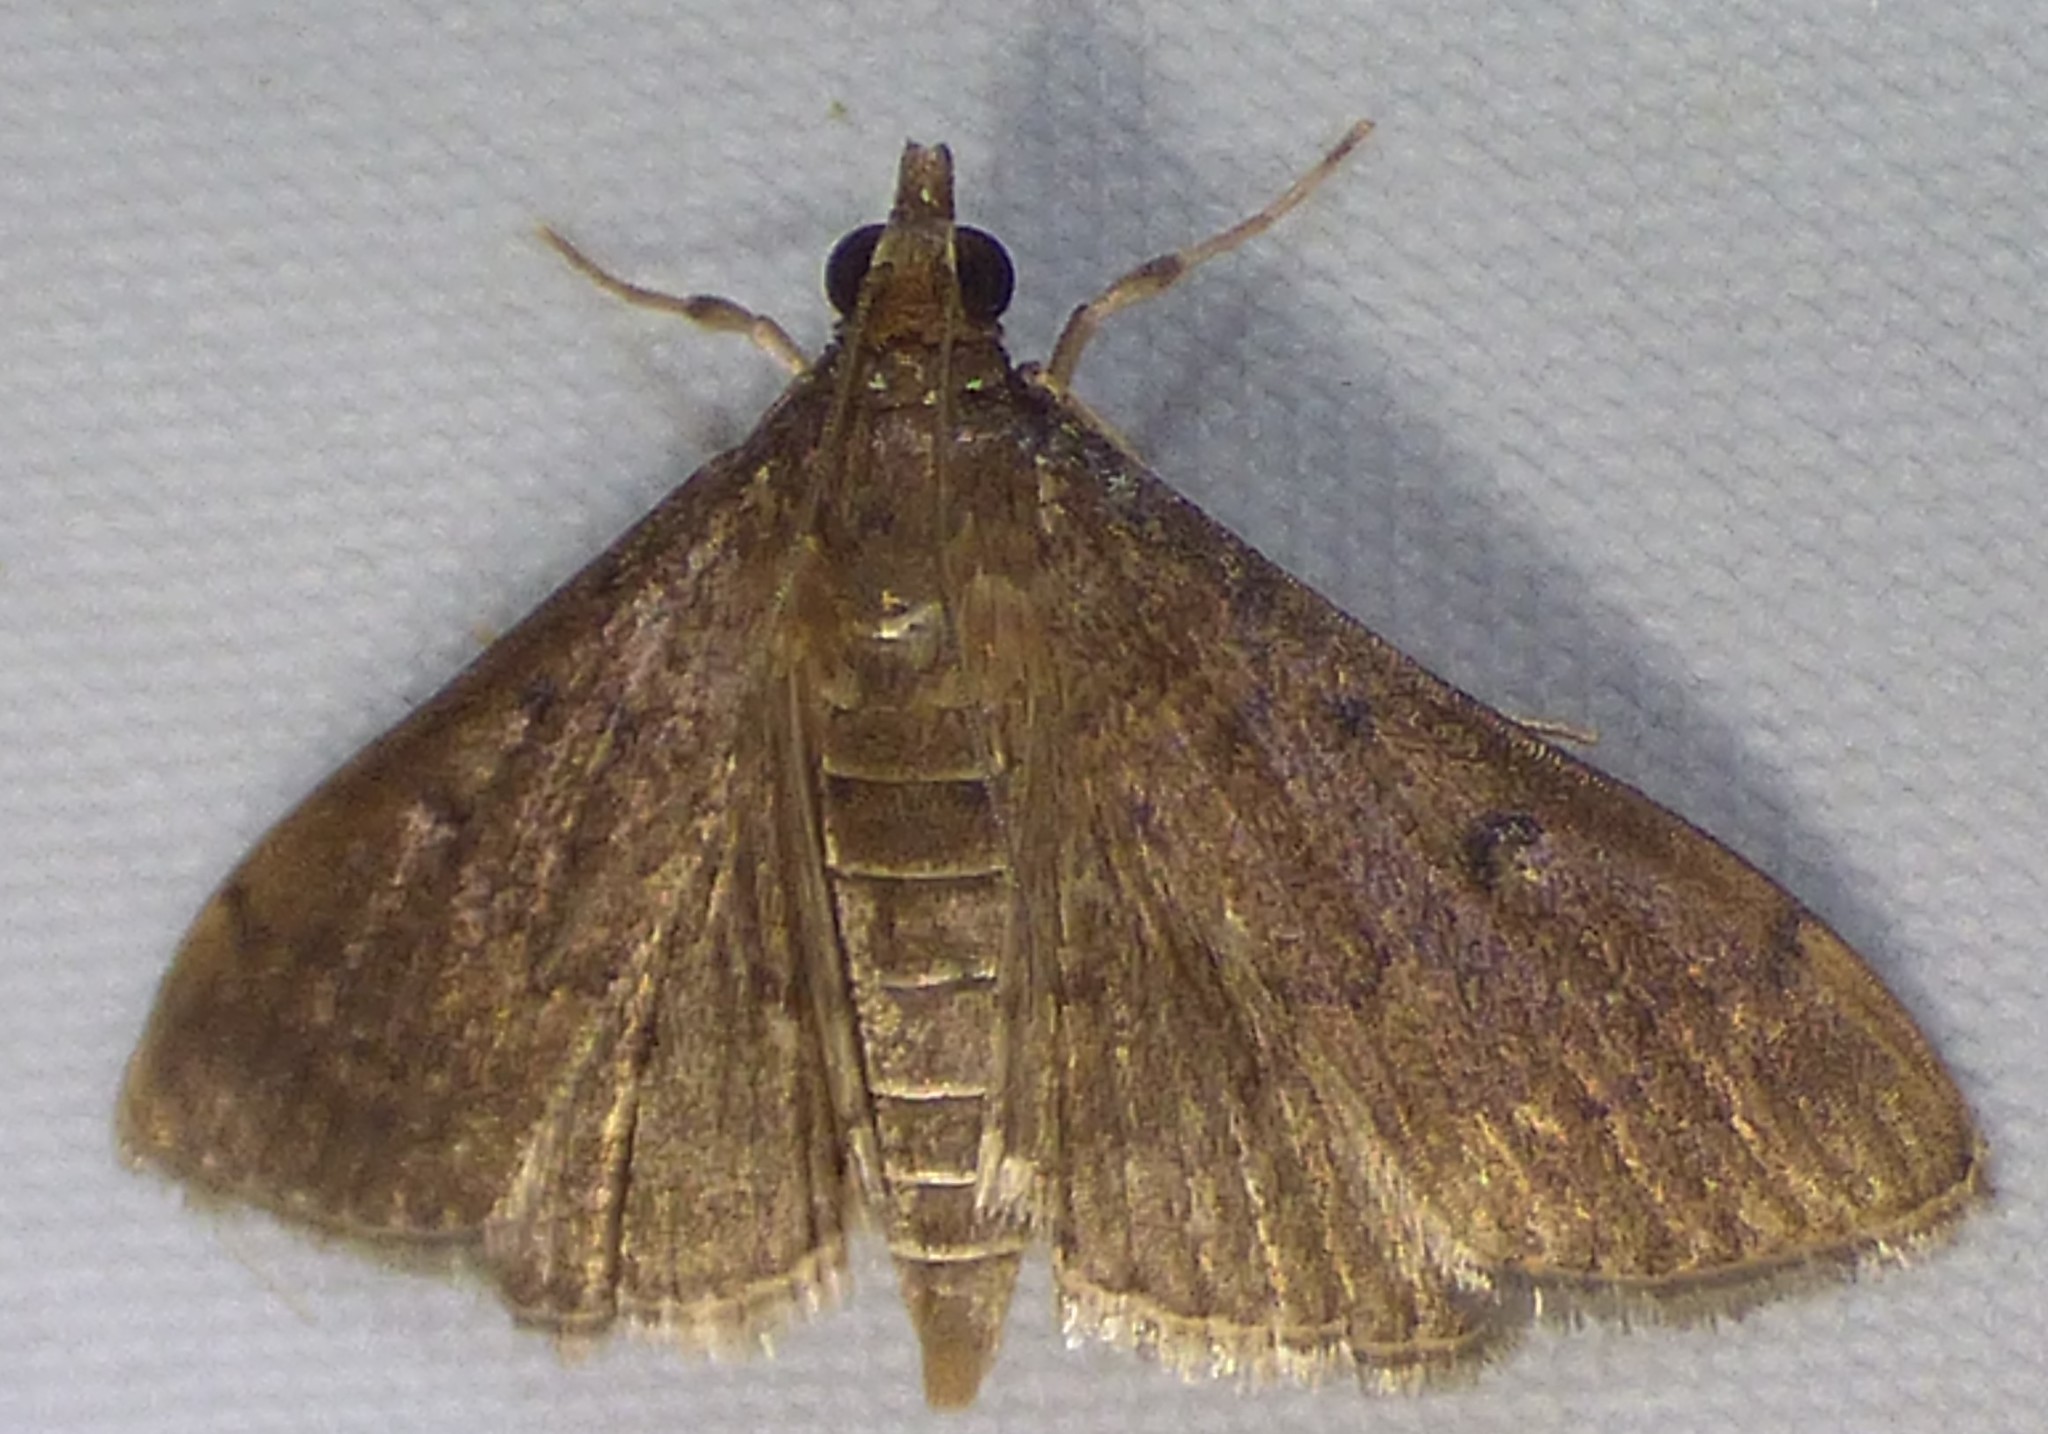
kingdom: Animalia
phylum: Arthropoda
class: Insecta
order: Lepidoptera
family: Crambidae
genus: Herpetogramma
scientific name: Herpetogramma phaeopteralis
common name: Dusky herpetogramma moth
